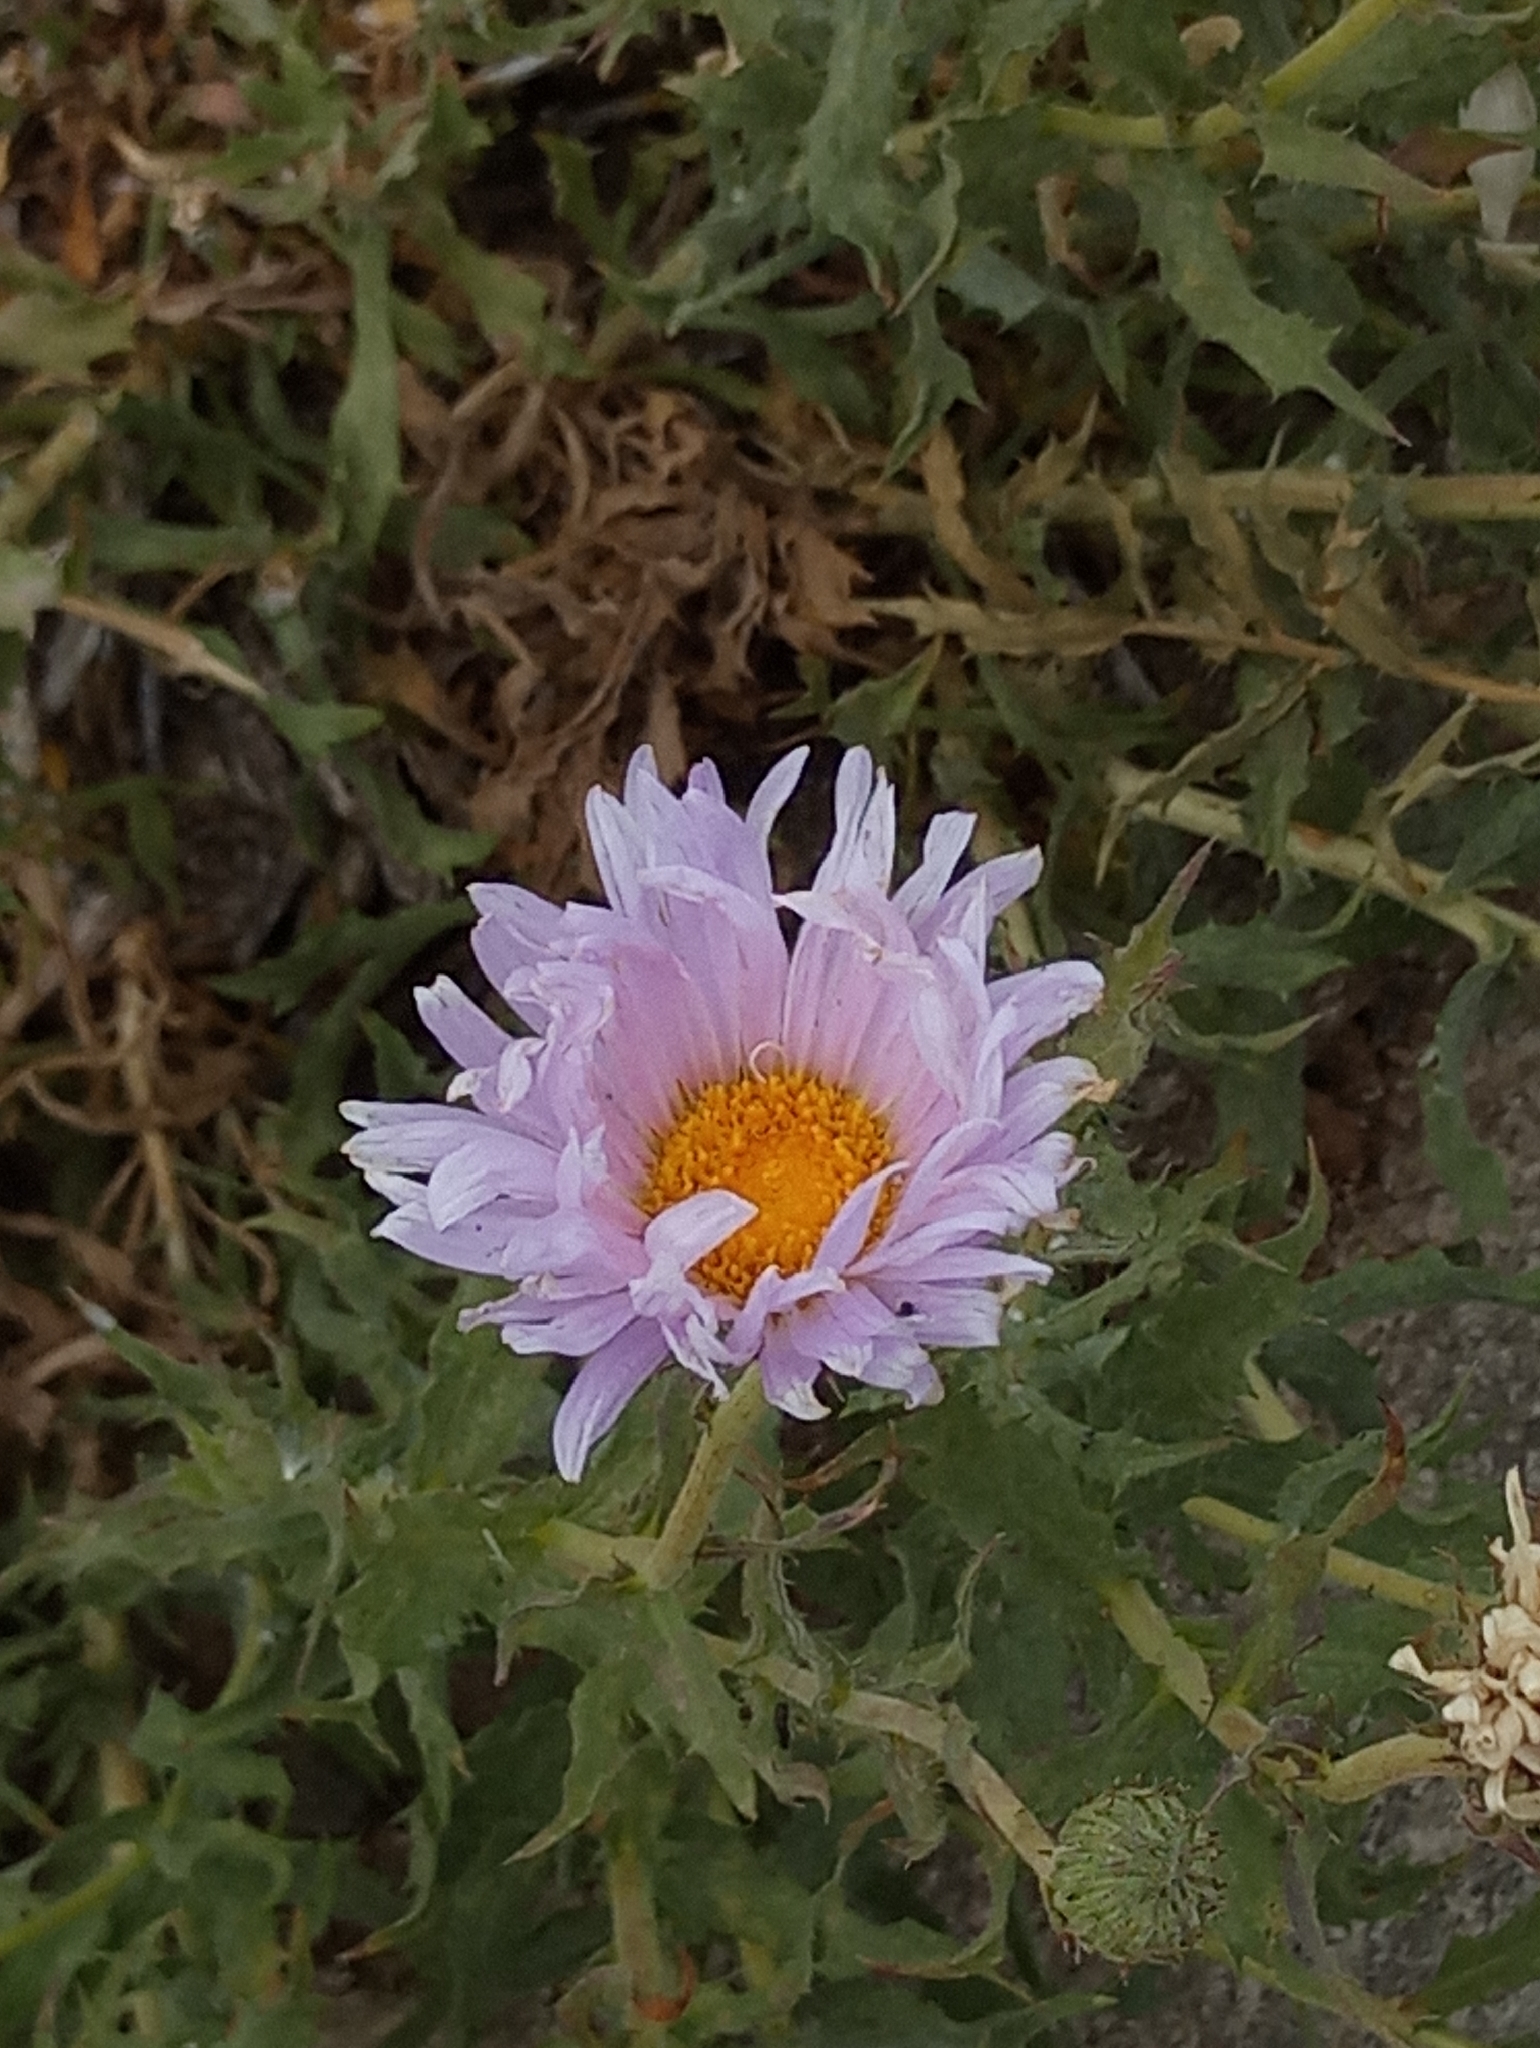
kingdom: Plantae
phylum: Tracheophyta
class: Magnoliopsida
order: Asterales
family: Asteraceae
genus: Xylorhiza
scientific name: Xylorhiza tortifolia
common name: Hurt-leaf woody-aster
